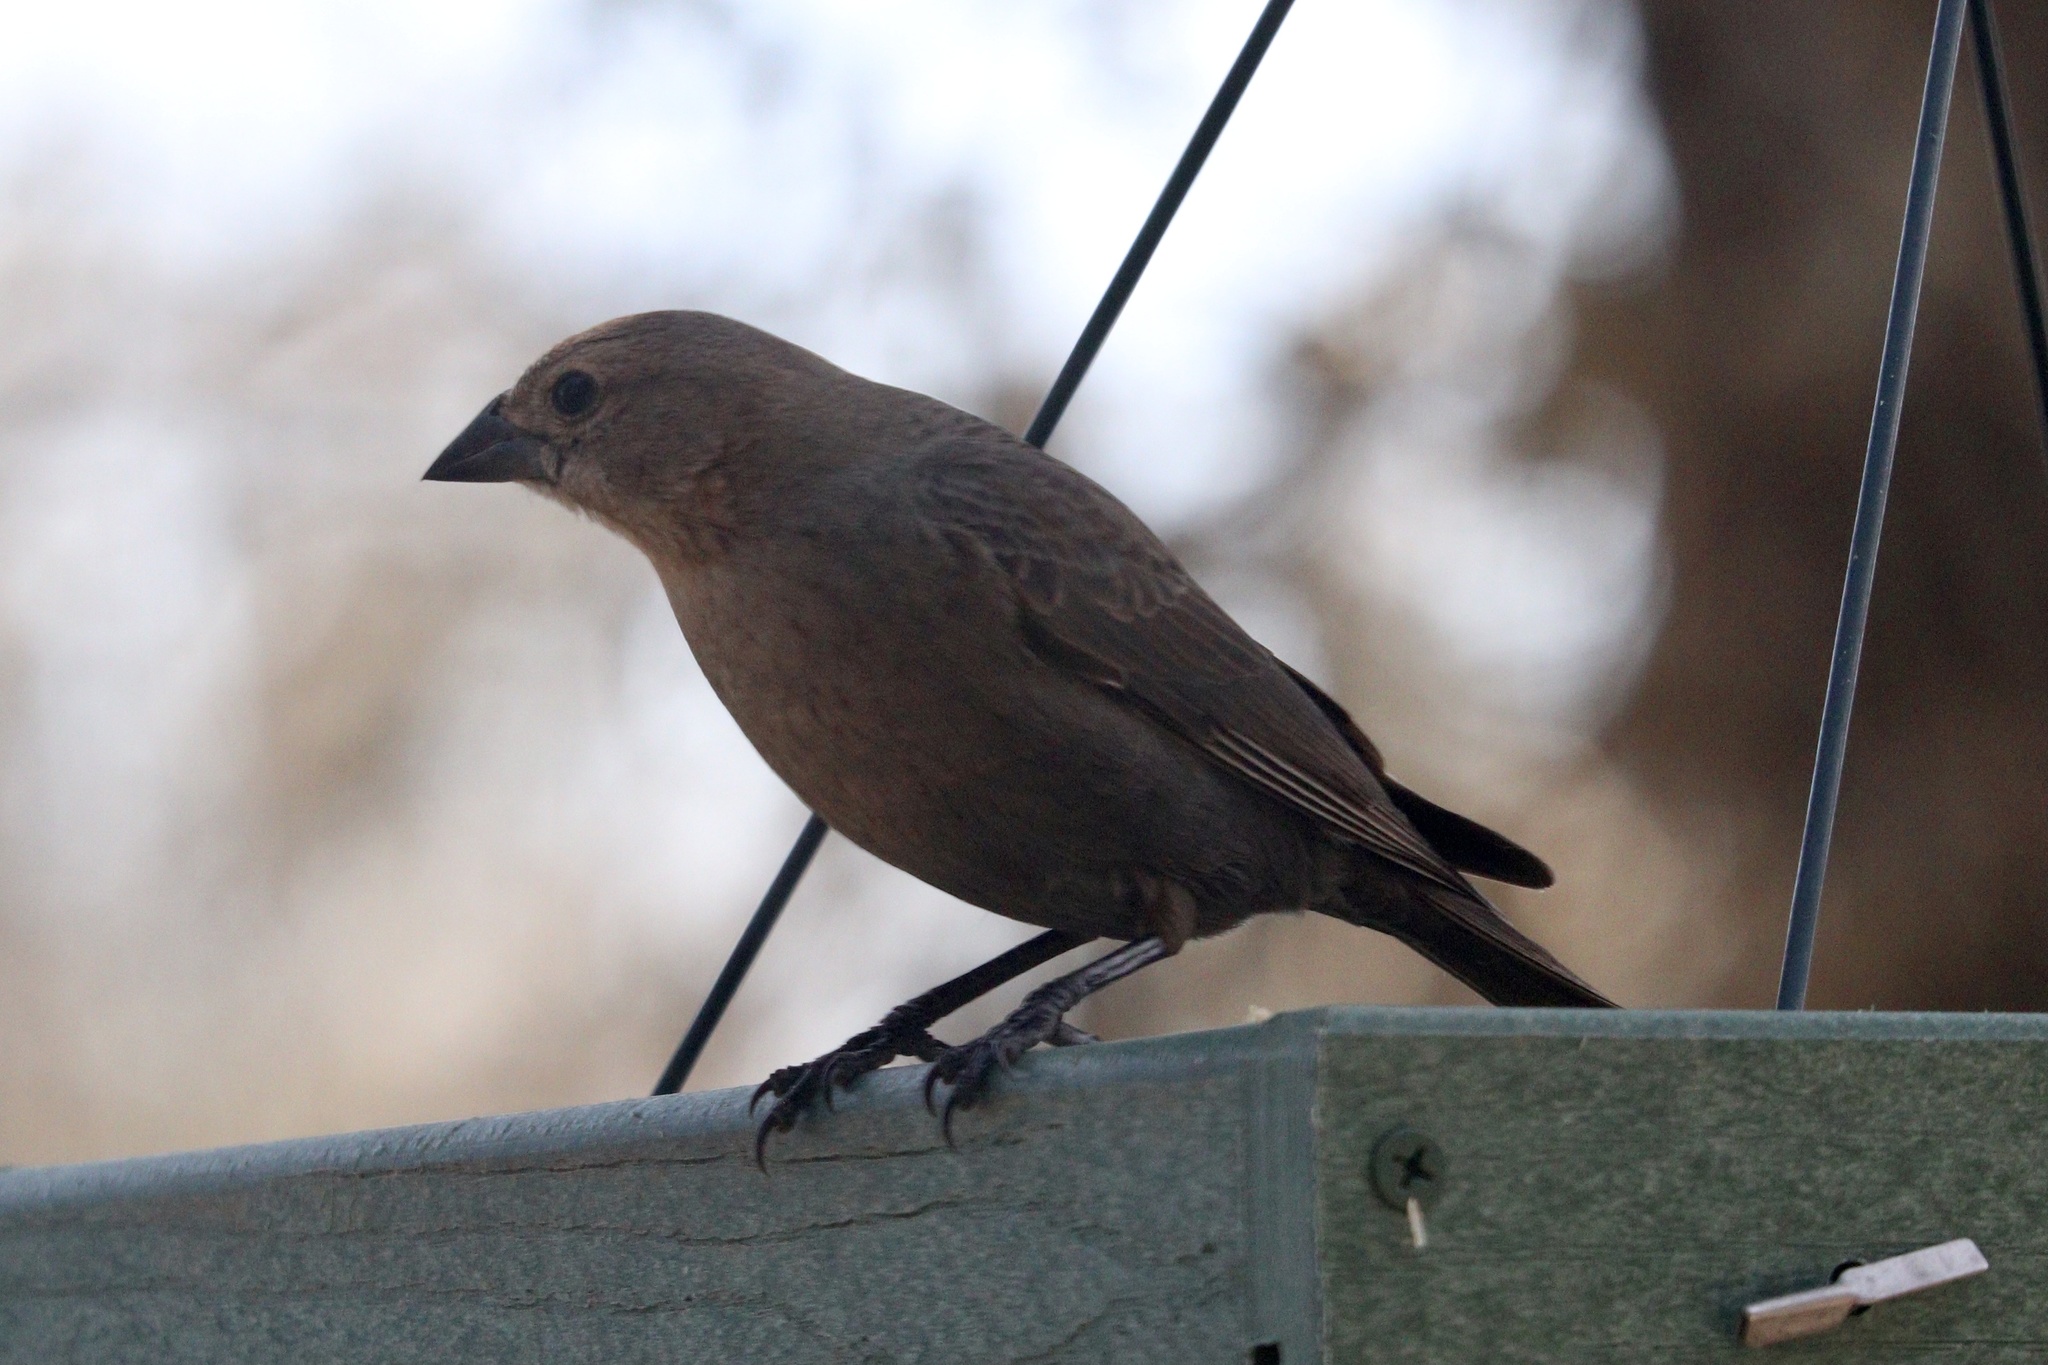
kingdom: Animalia
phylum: Chordata
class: Aves
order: Passeriformes
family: Icteridae
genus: Molothrus
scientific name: Molothrus ater
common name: Brown-headed cowbird
